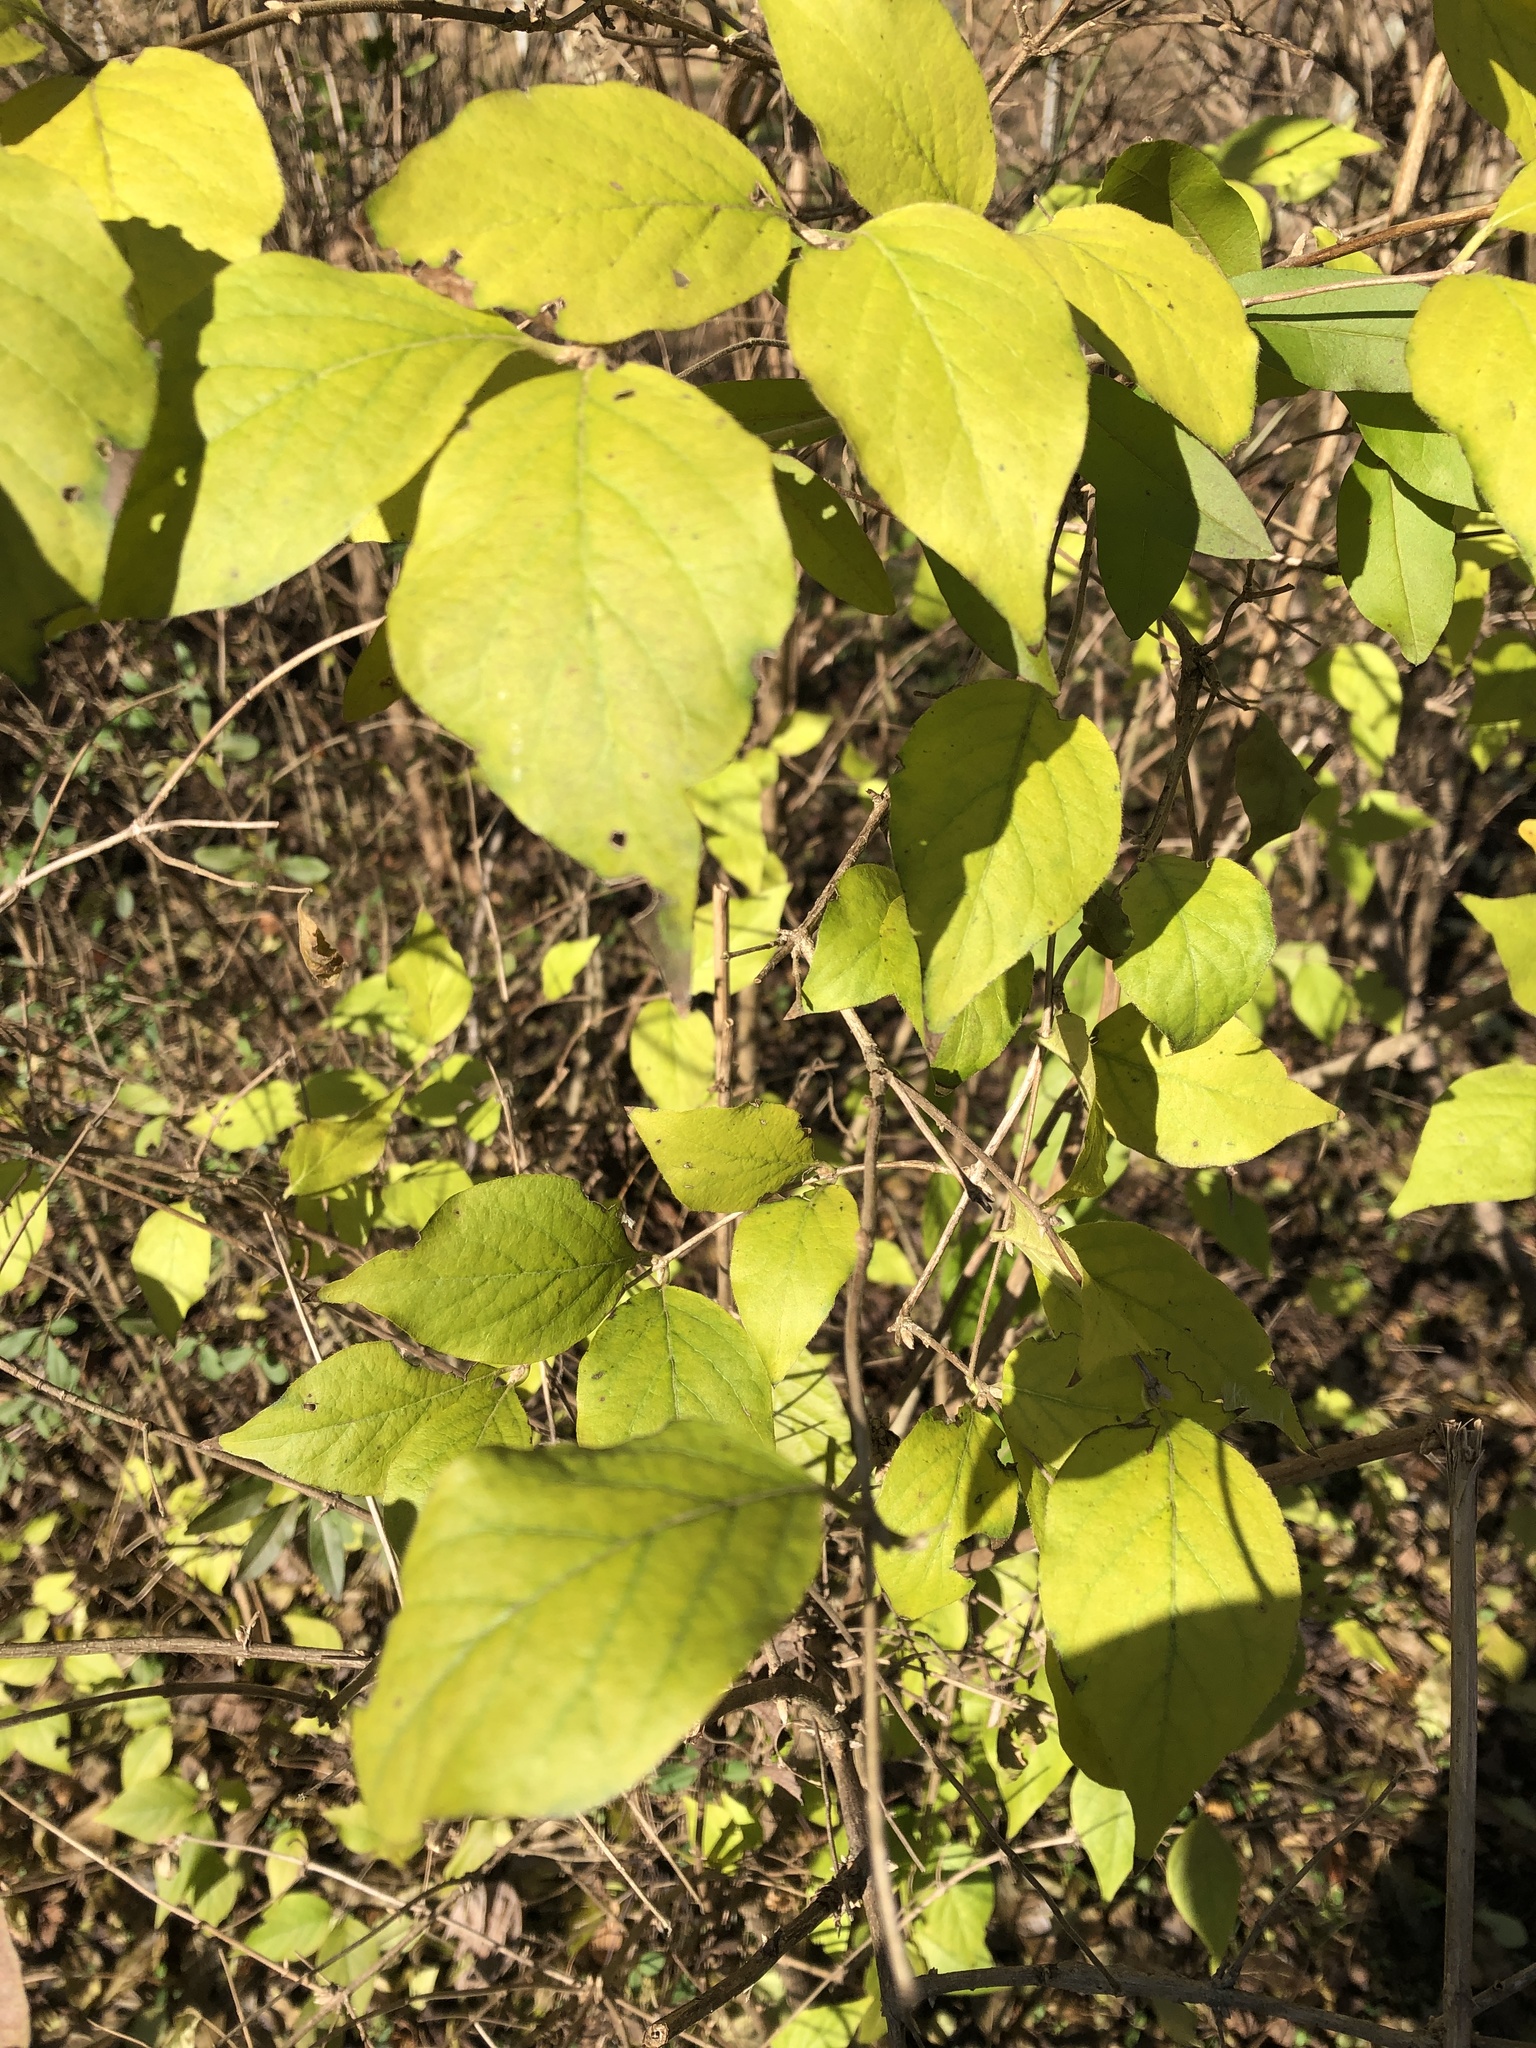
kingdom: Plantae
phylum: Tracheophyta
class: Magnoliopsida
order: Dipsacales
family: Caprifoliaceae
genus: Lonicera
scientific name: Lonicera maackii
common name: Amur honeysuckle
